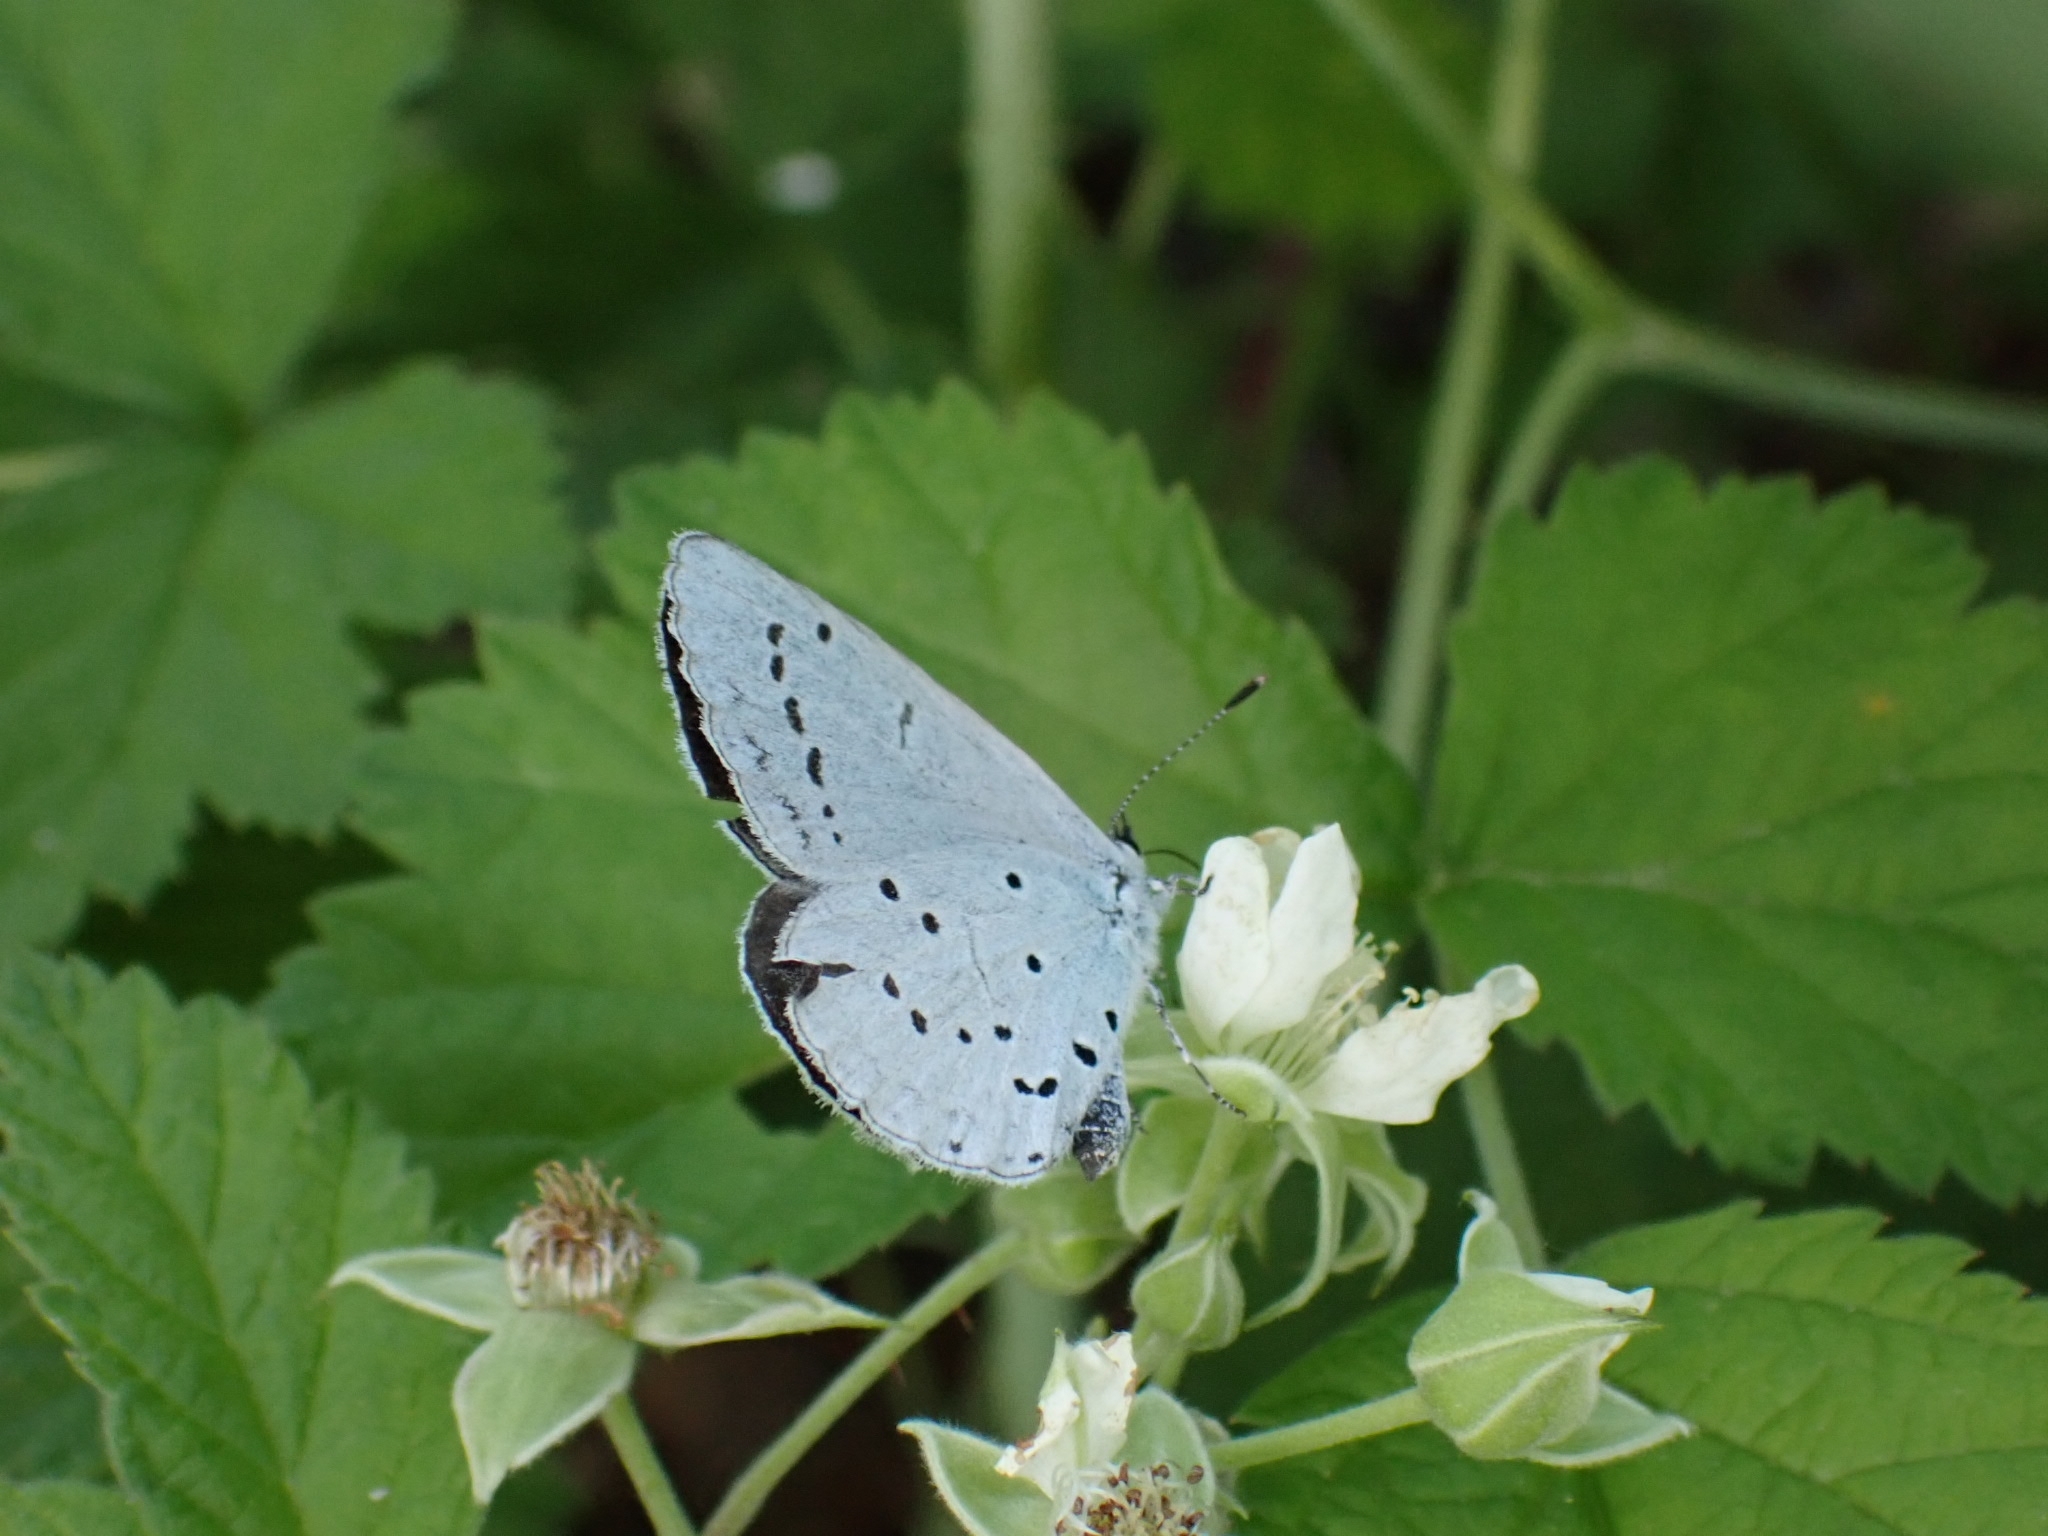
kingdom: Animalia
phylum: Arthropoda
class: Insecta
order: Lepidoptera
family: Lycaenidae
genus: Celastrina
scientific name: Celastrina argiolus
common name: Holly blue
